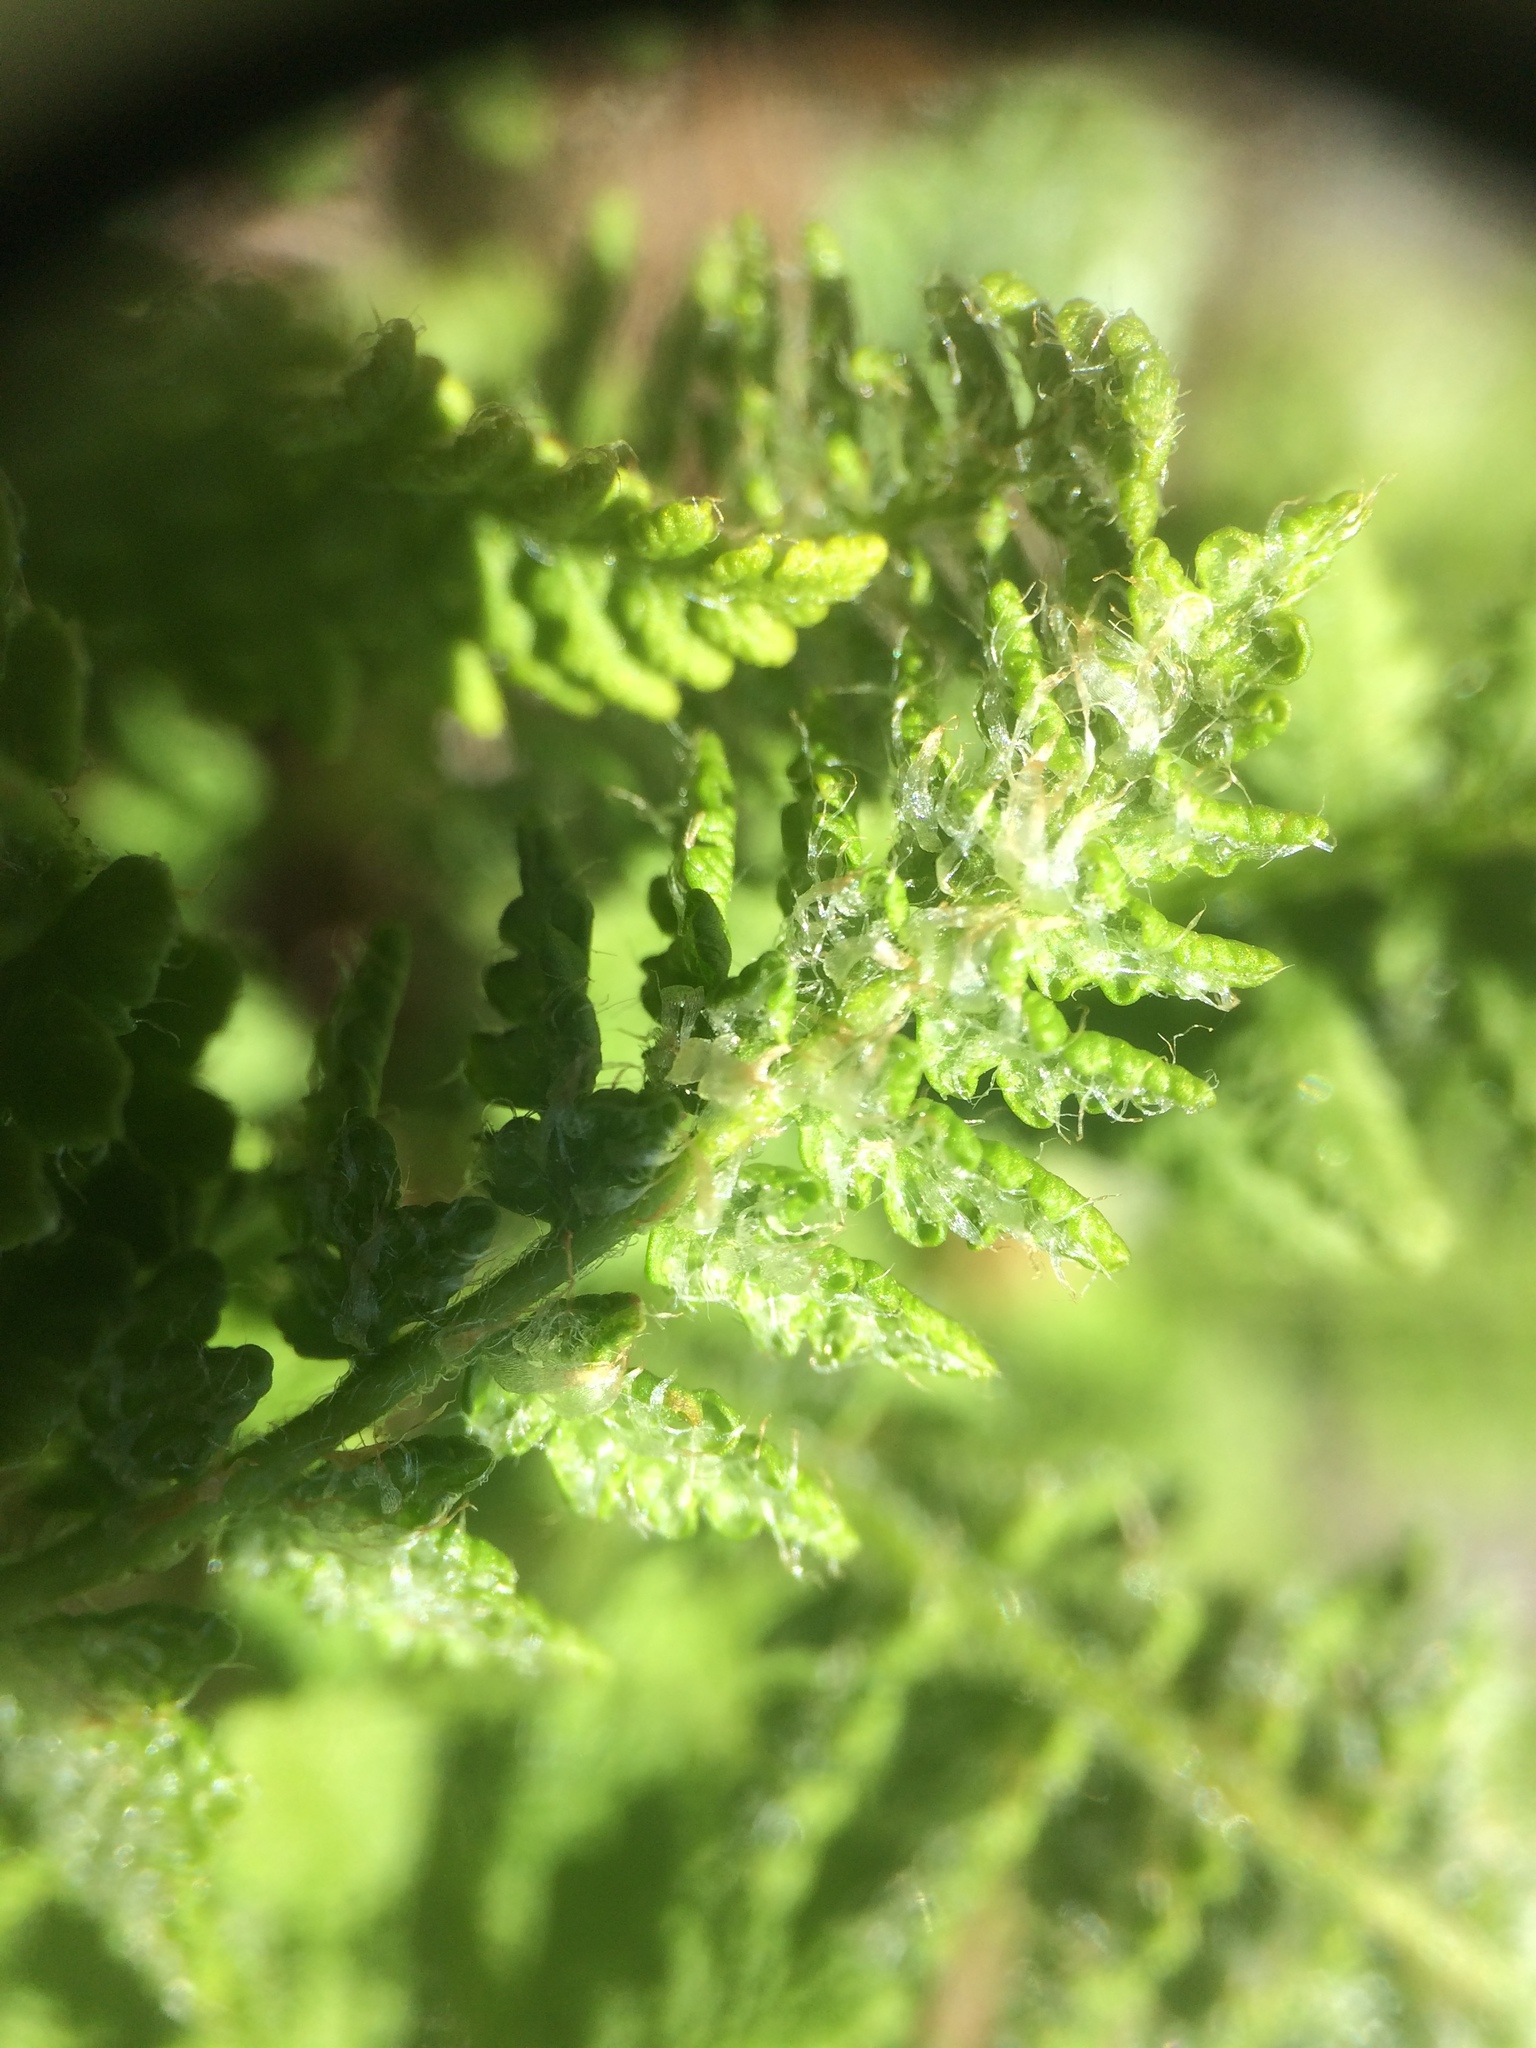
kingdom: Plantae
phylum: Tracheophyta
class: Polypodiopsida
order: Polypodiales
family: Woodsiaceae
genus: Woodsia
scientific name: Woodsia ilvensis
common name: Fragrant woodsia
